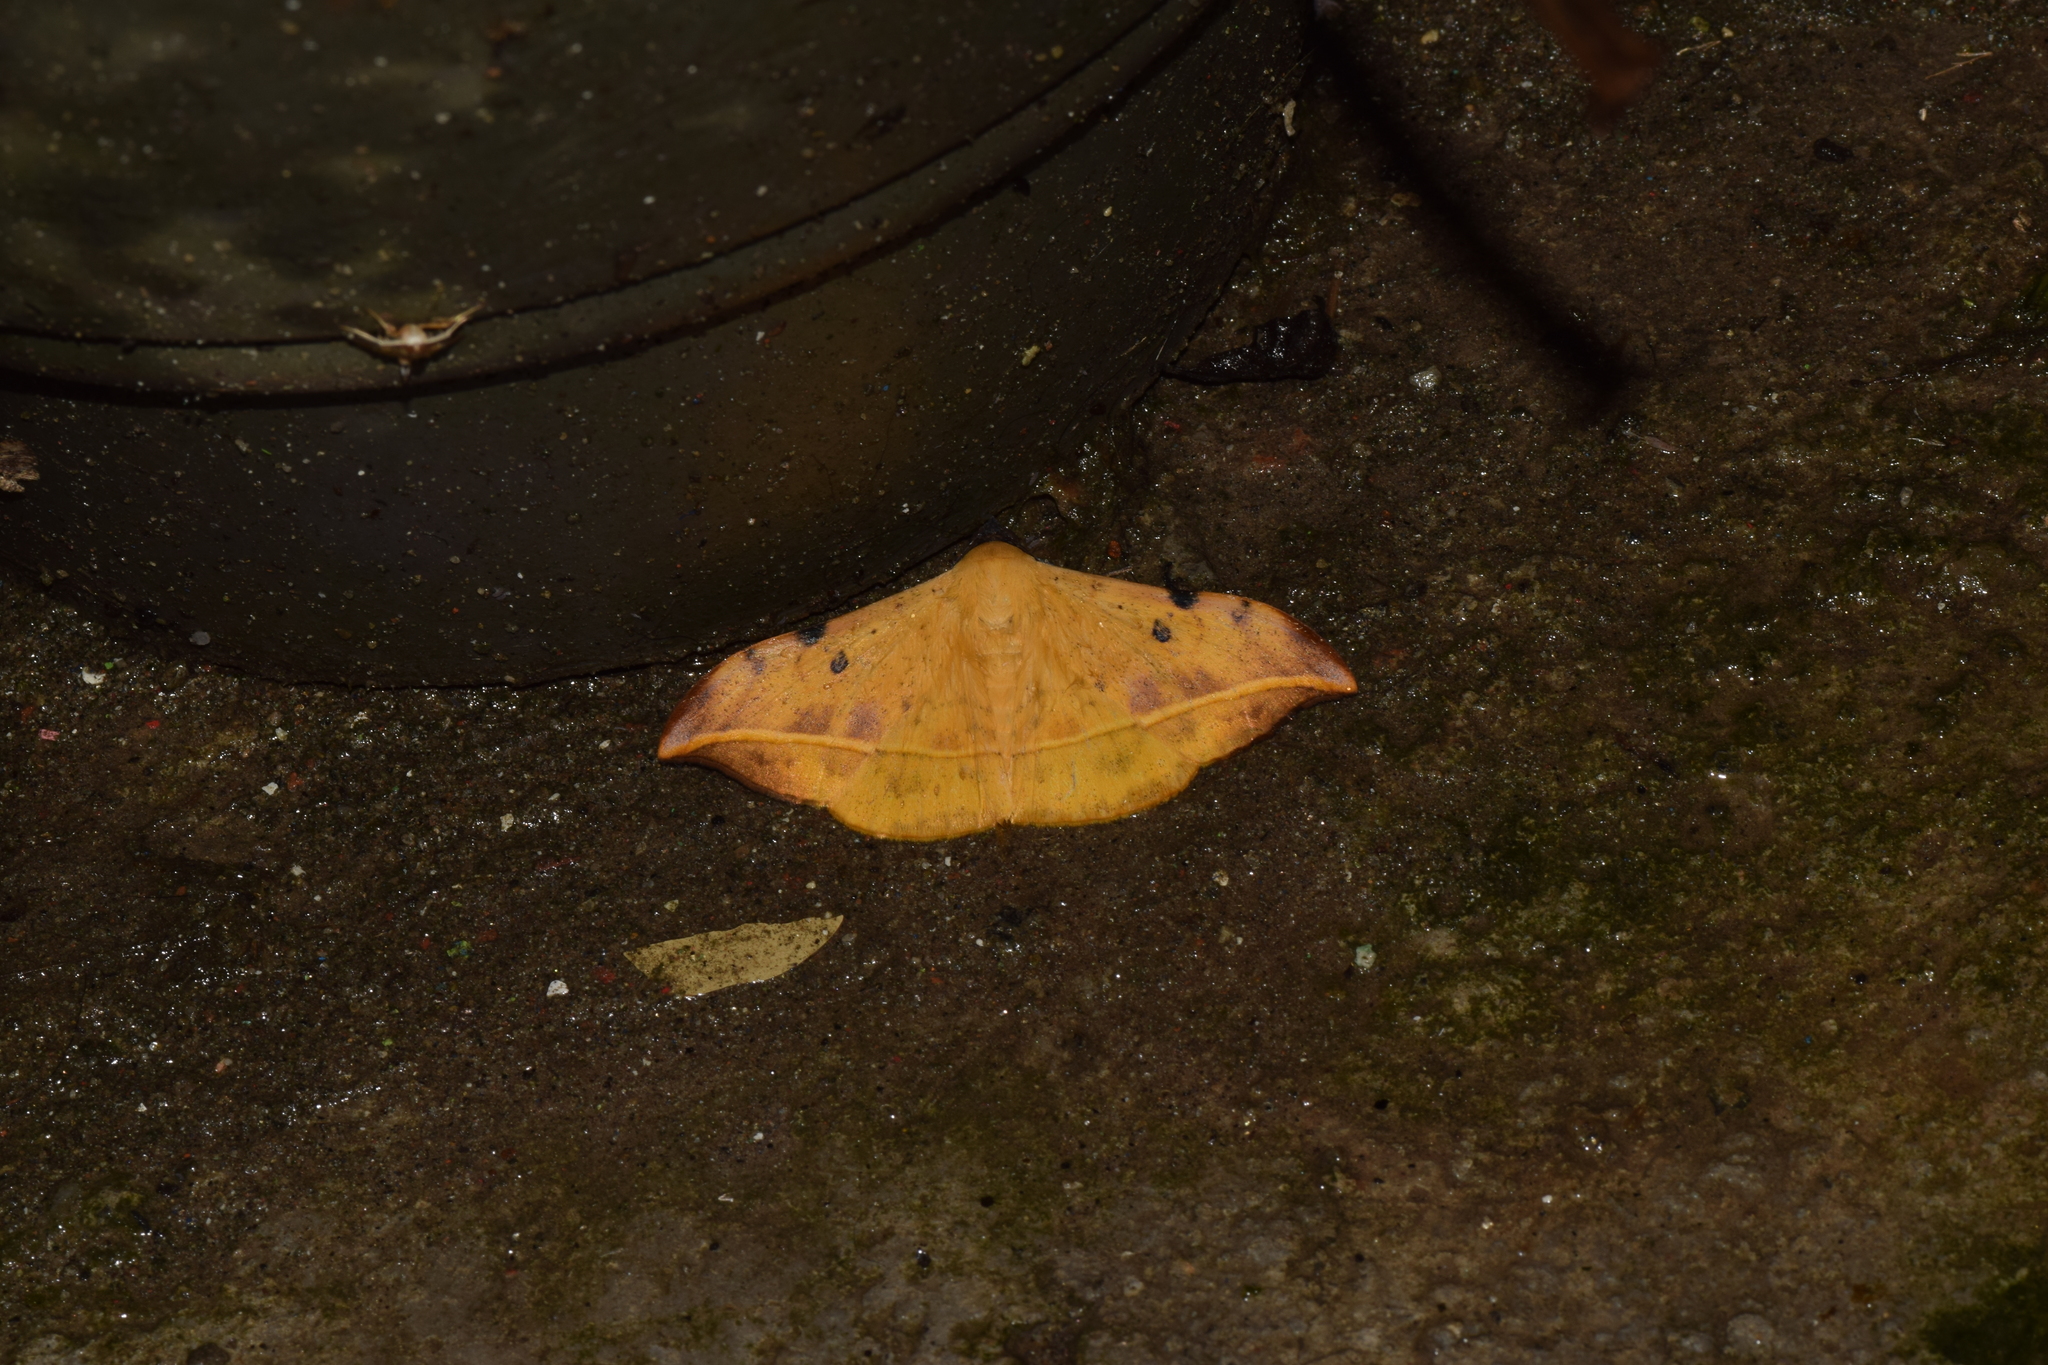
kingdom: Animalia
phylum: Arthropoda
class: Insecta
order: Lepidoptera
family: Erebidae
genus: Hamodes
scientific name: Hamodes propitia
